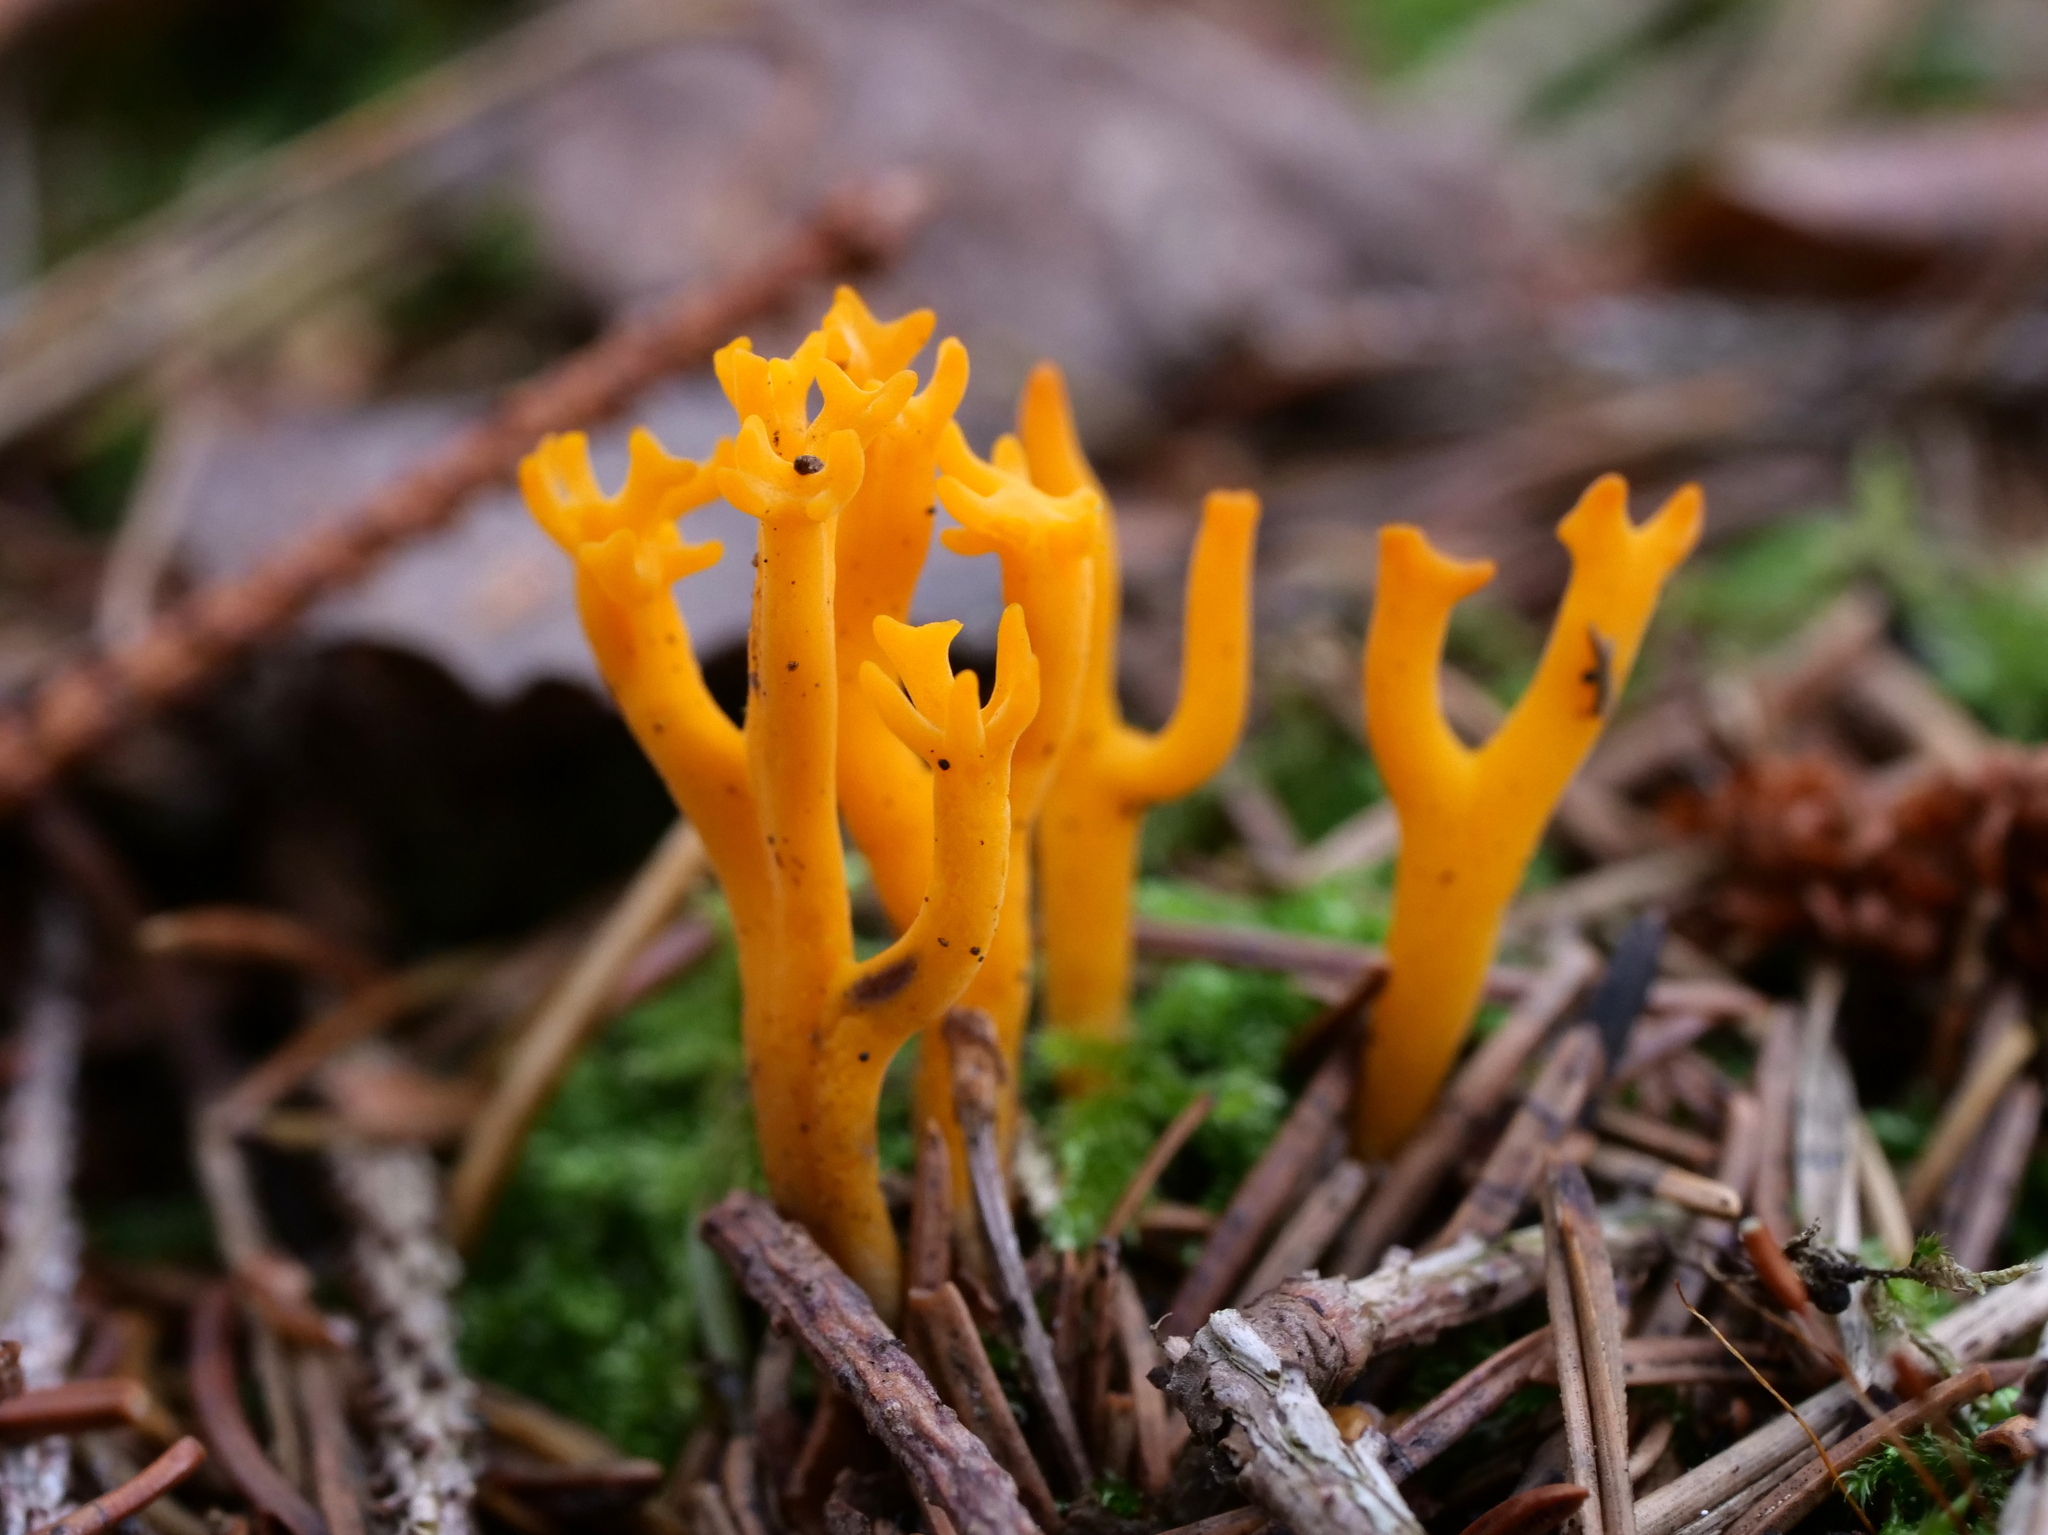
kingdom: Fungi
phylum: Basidiomycota
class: Dacrymycetes
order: Dacrymycetales
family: Dacrymycetaceae
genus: Calocera
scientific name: Calocera viscosa
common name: Yellow stagshorn
